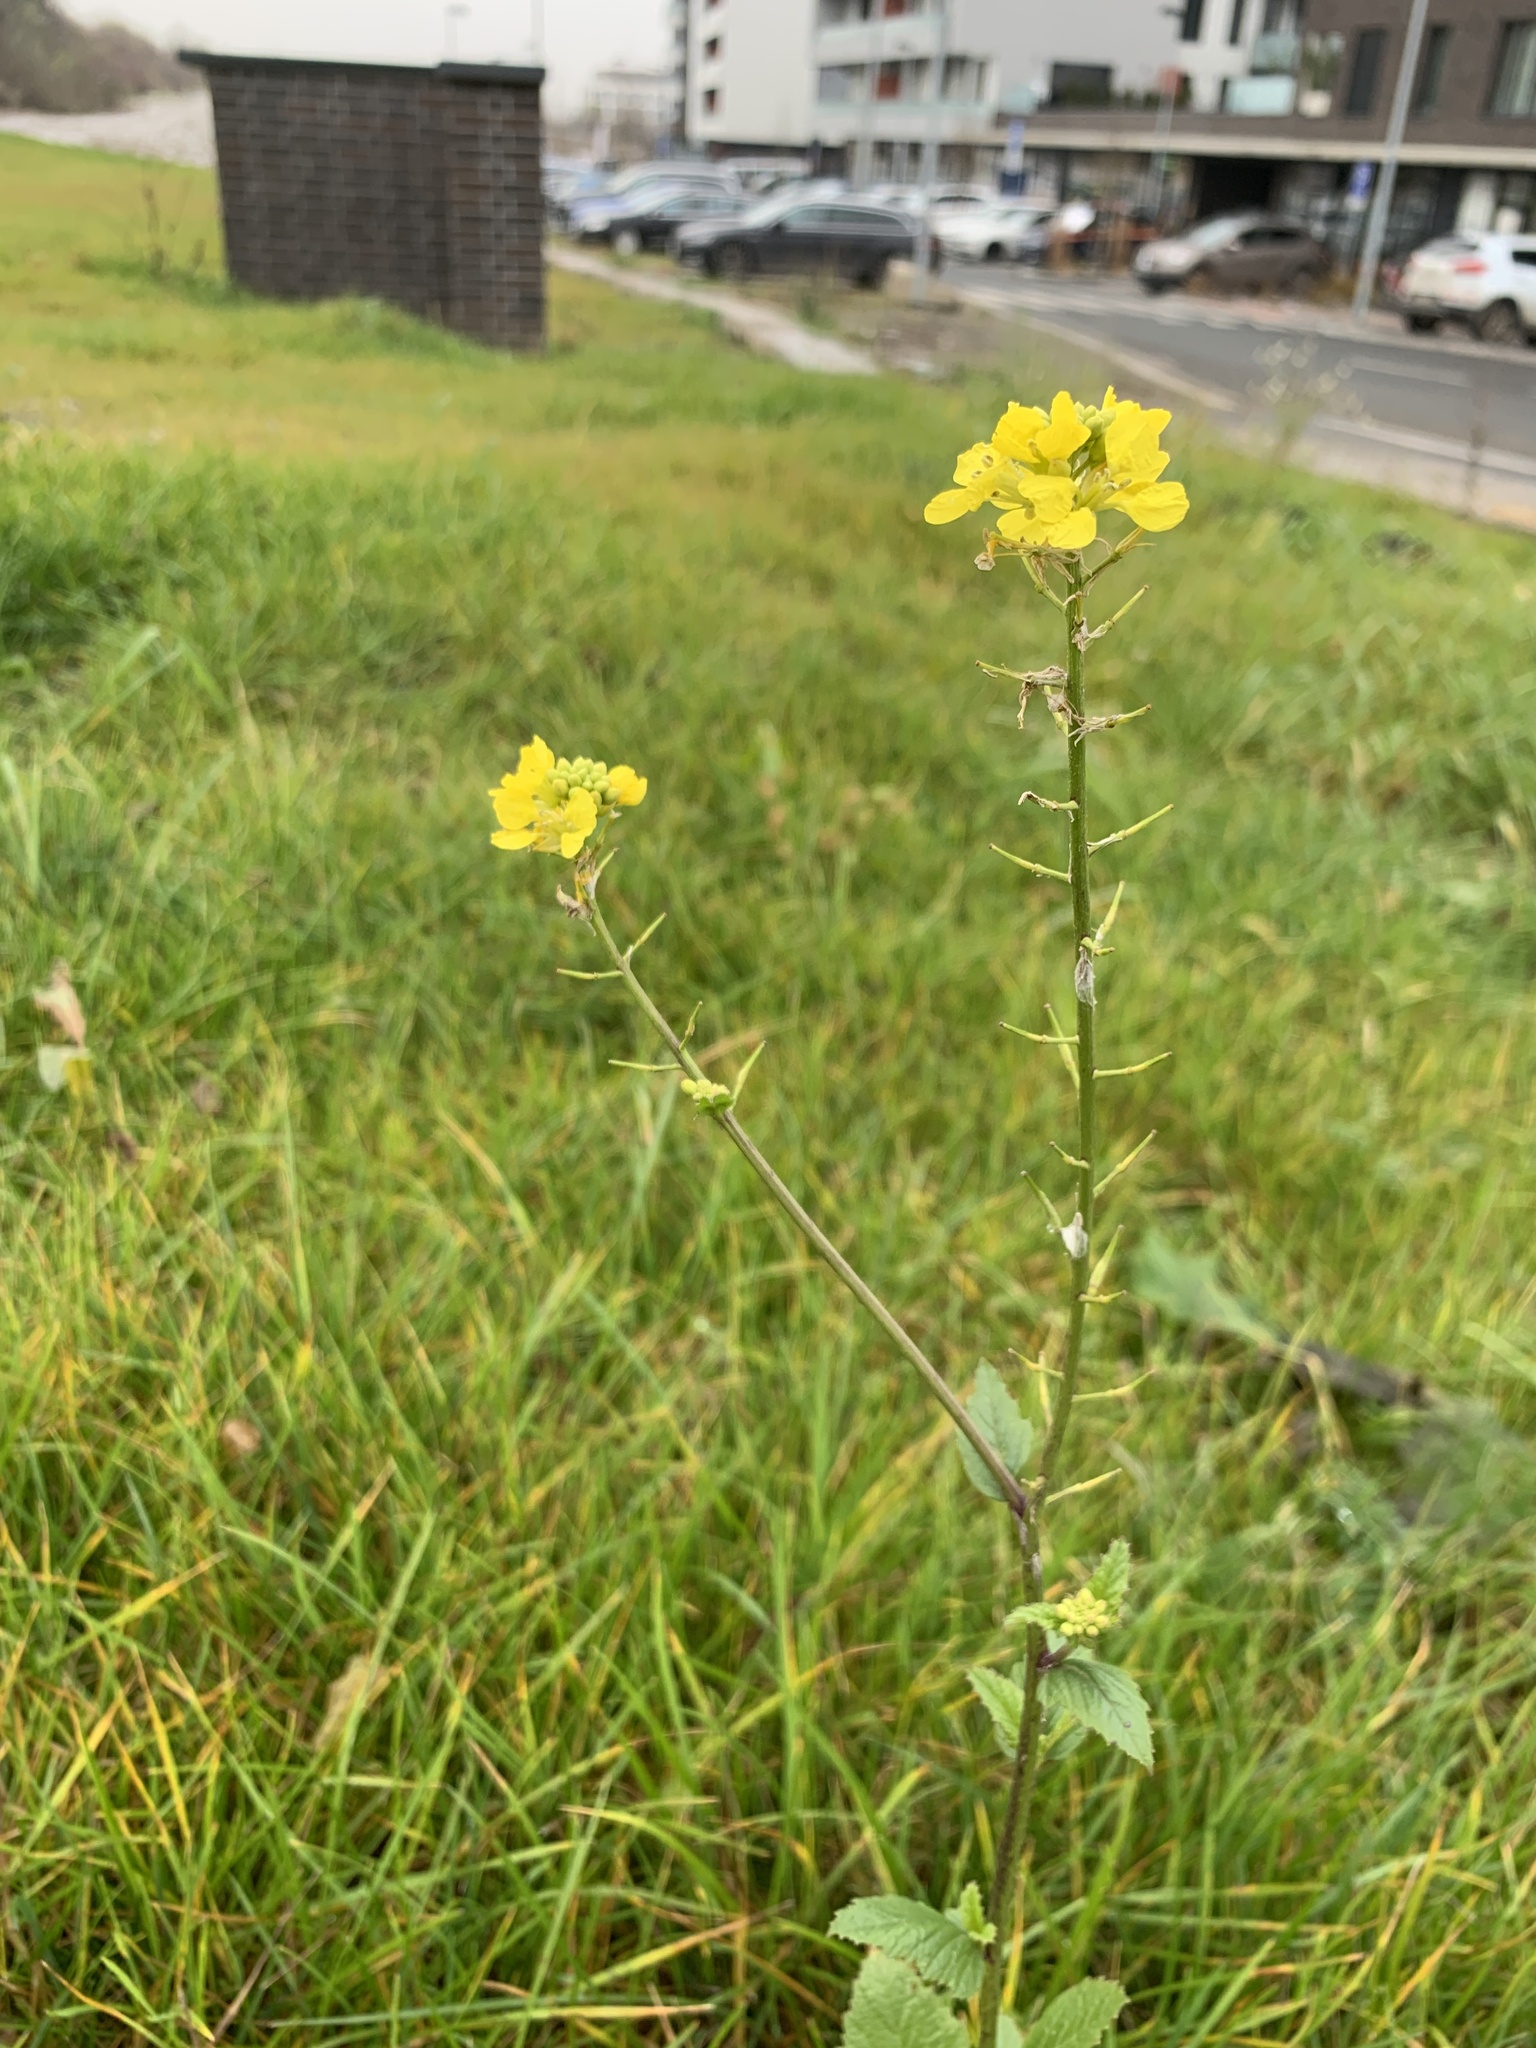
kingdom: Plantae
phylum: Tracheophyta
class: Magnoliopsida
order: Brassicales
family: Brassicaceae
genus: Sinapis
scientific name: Sinapis arvensis
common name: Charlock
